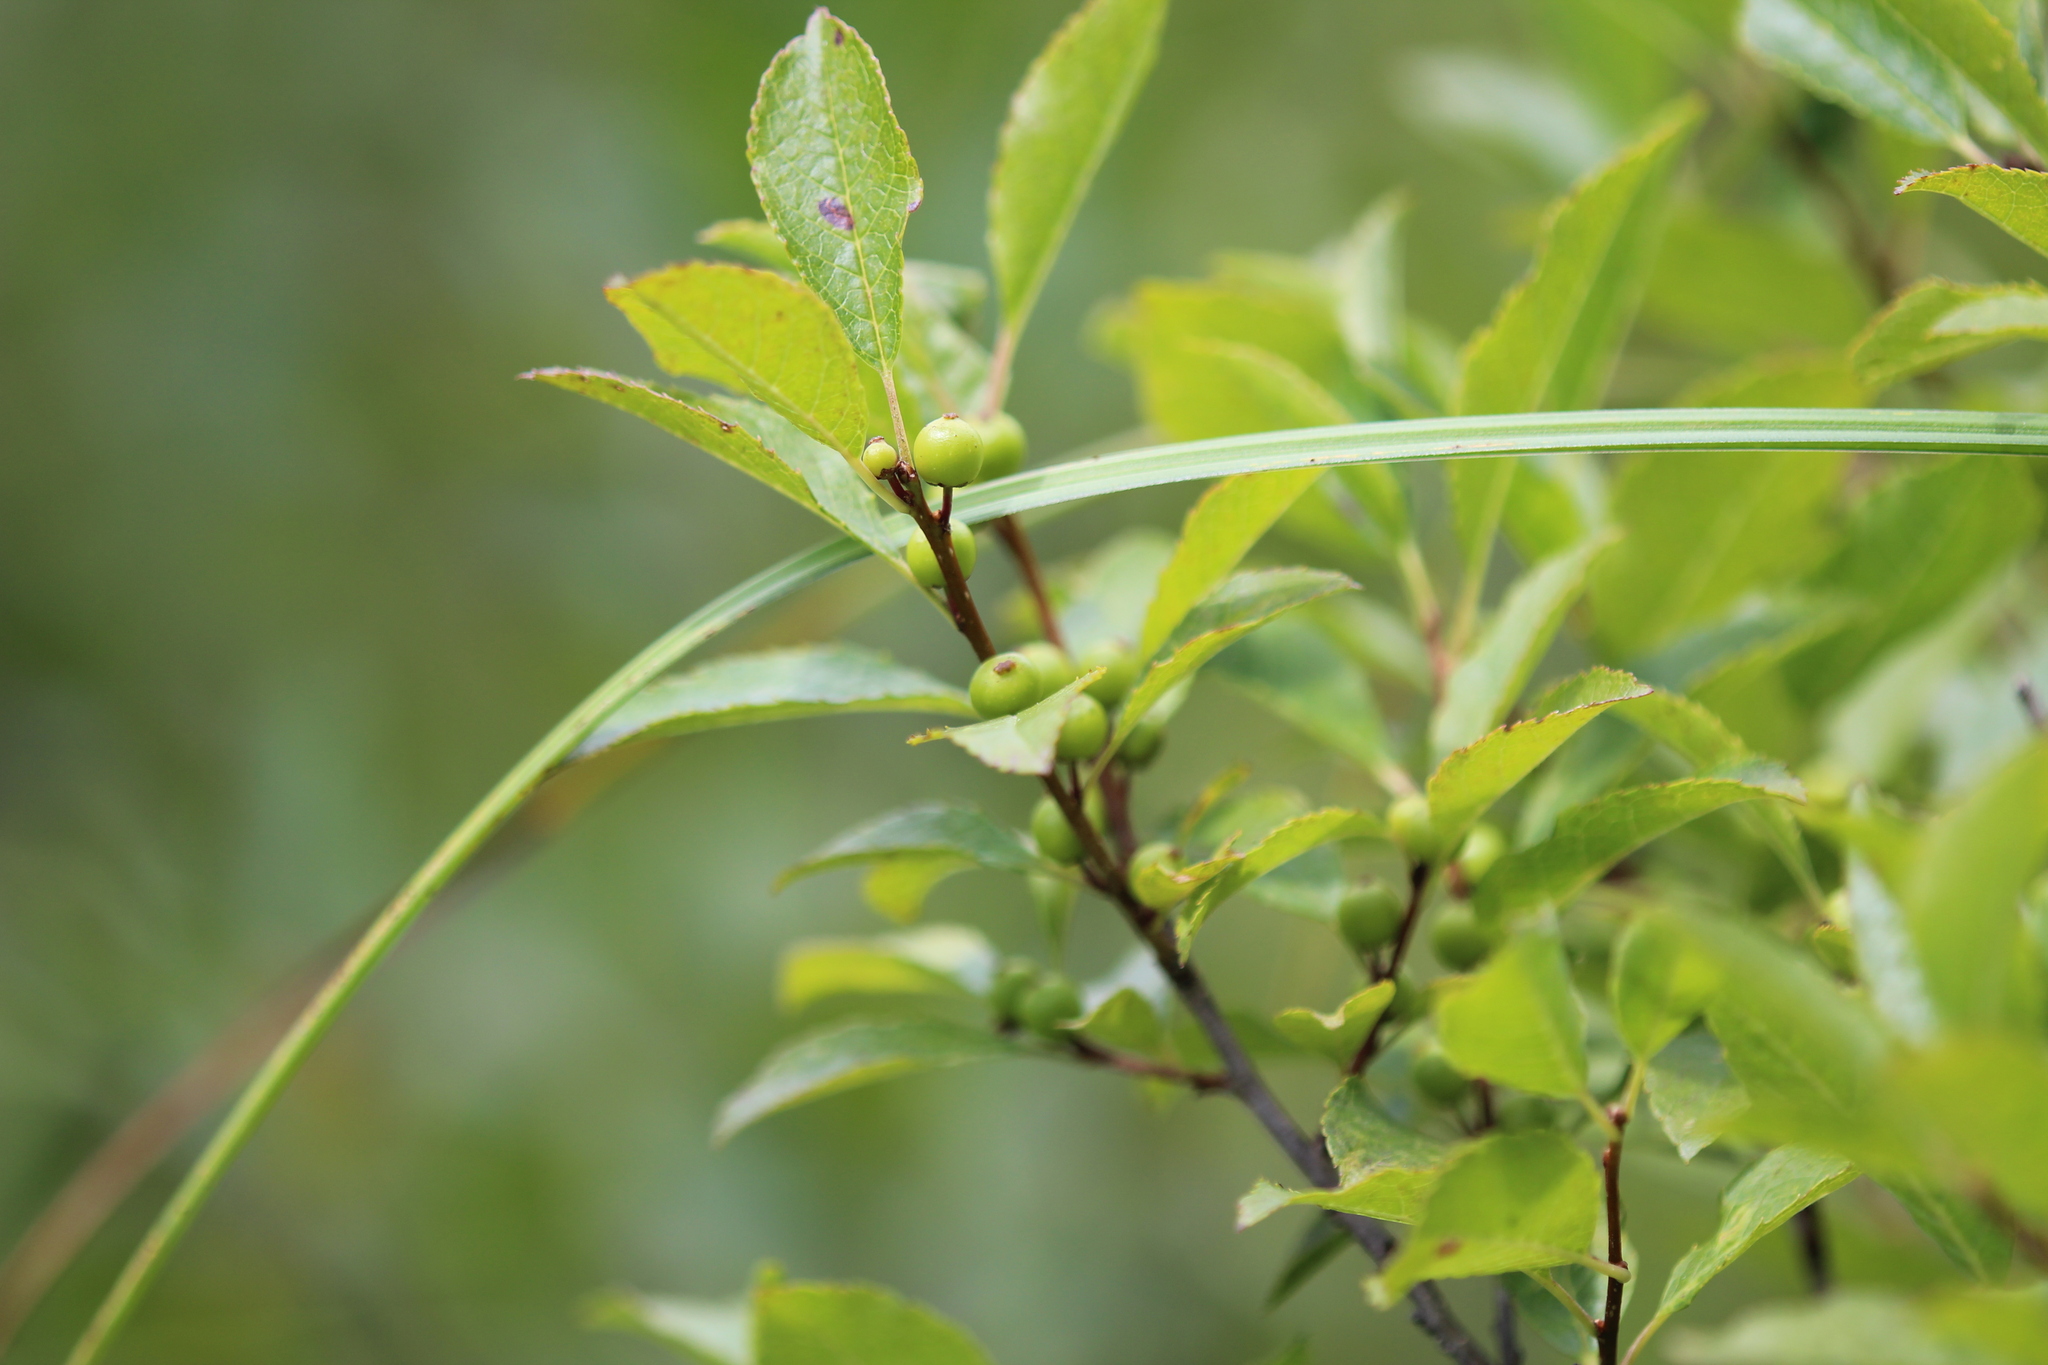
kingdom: Plantae
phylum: Tracheophyta
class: Magnoliopsida
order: Aquifoliales
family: Aquifoliaceae
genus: Ilex
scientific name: Ilex verticillata
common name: Virginia winterberry
